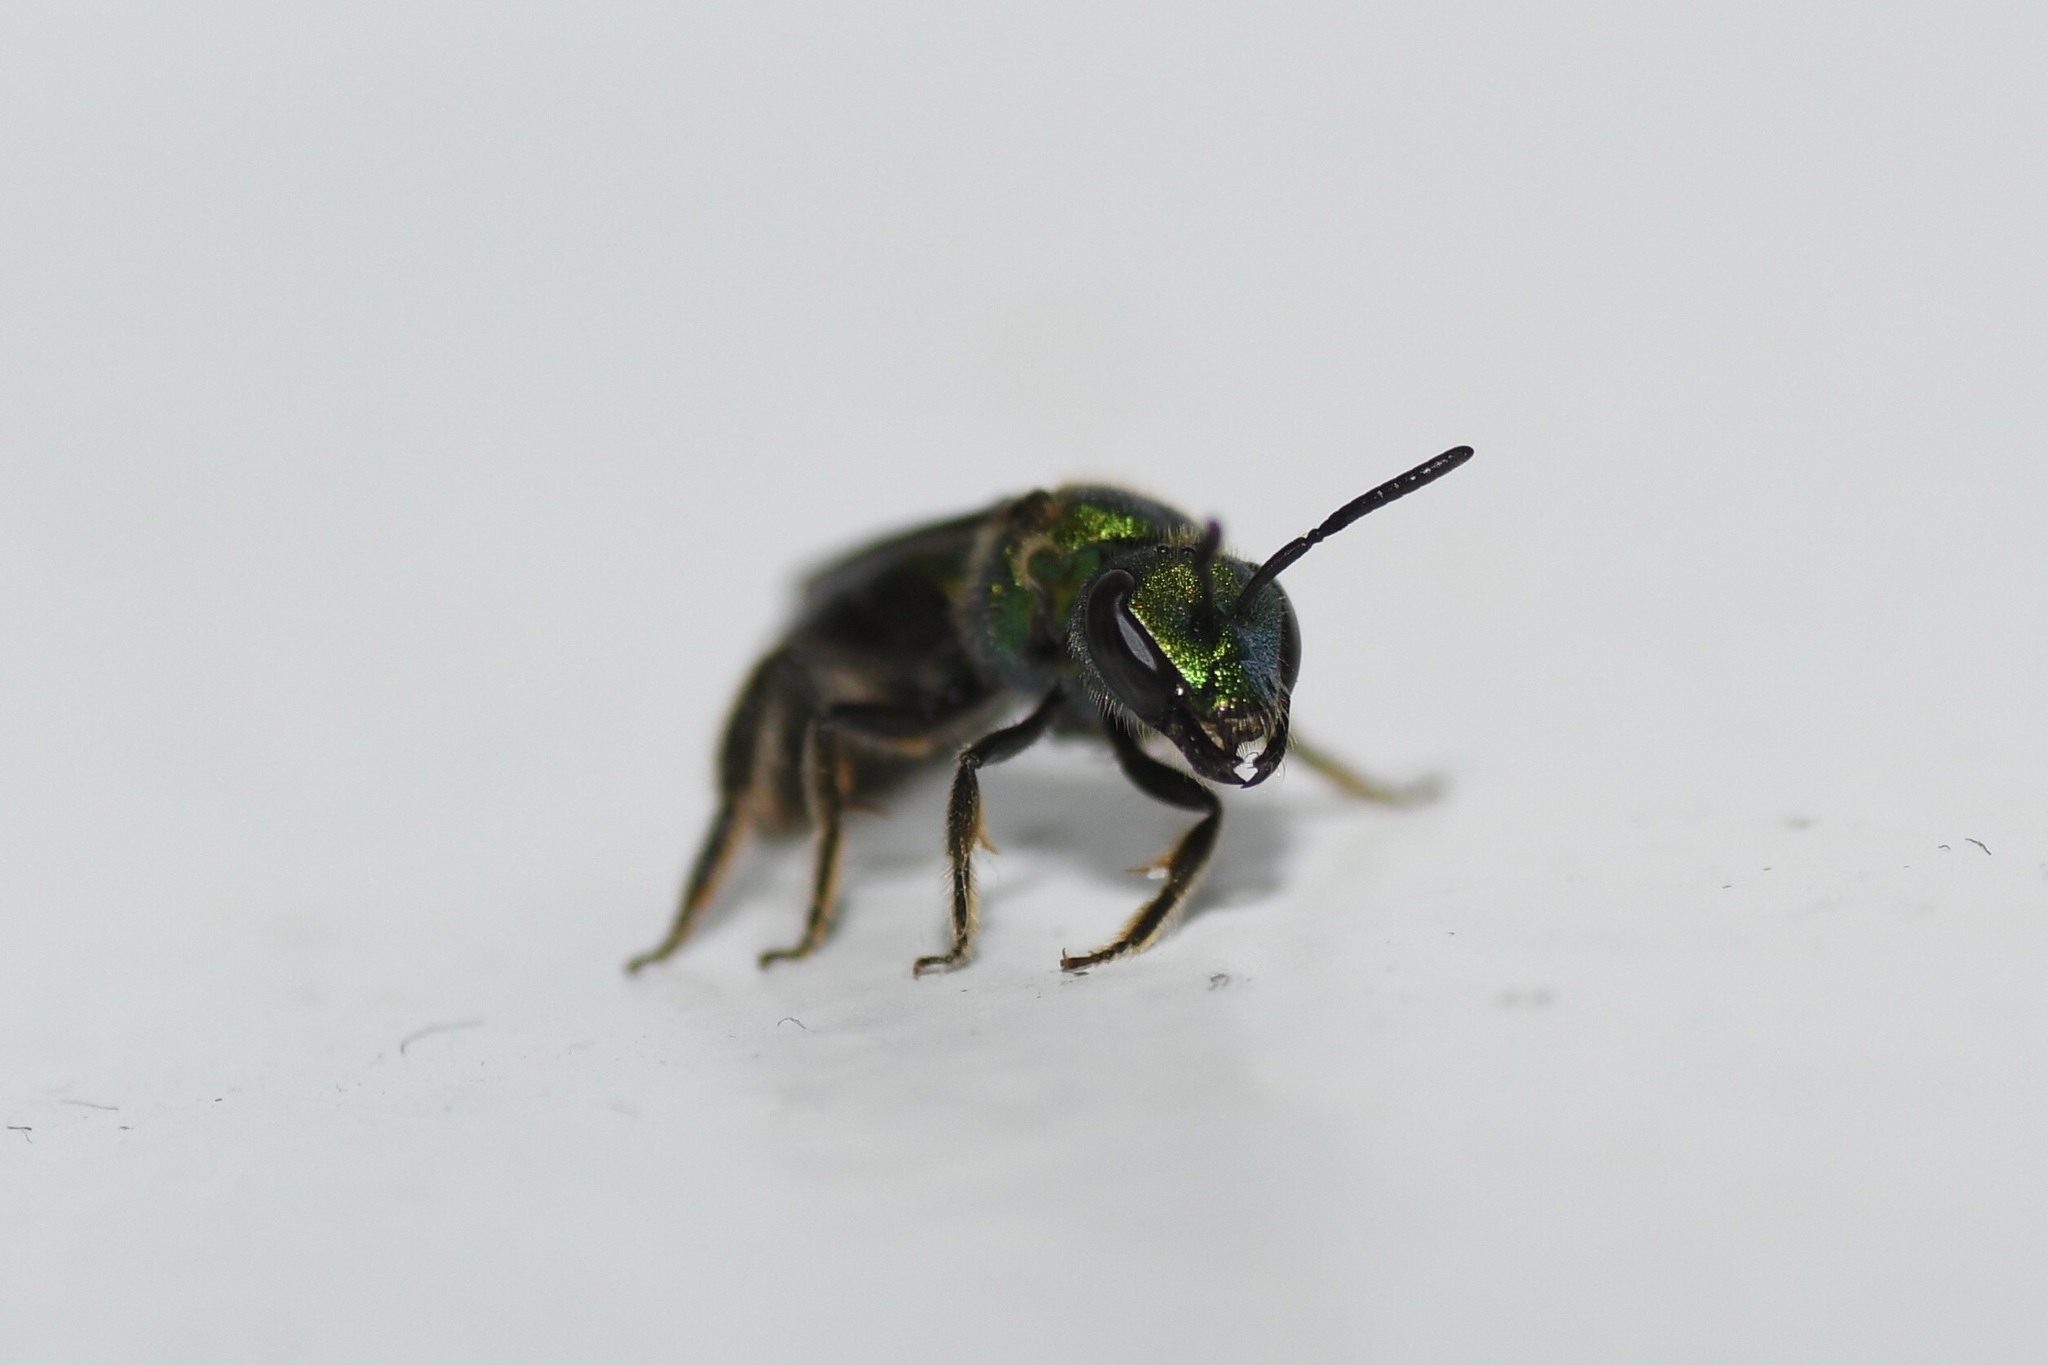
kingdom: Animalia
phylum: Arthropoda
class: Insecta
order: Hymenoptera
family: Halictidae
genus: Augochlora
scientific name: Augochlora pura
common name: Pure green sweat bee
